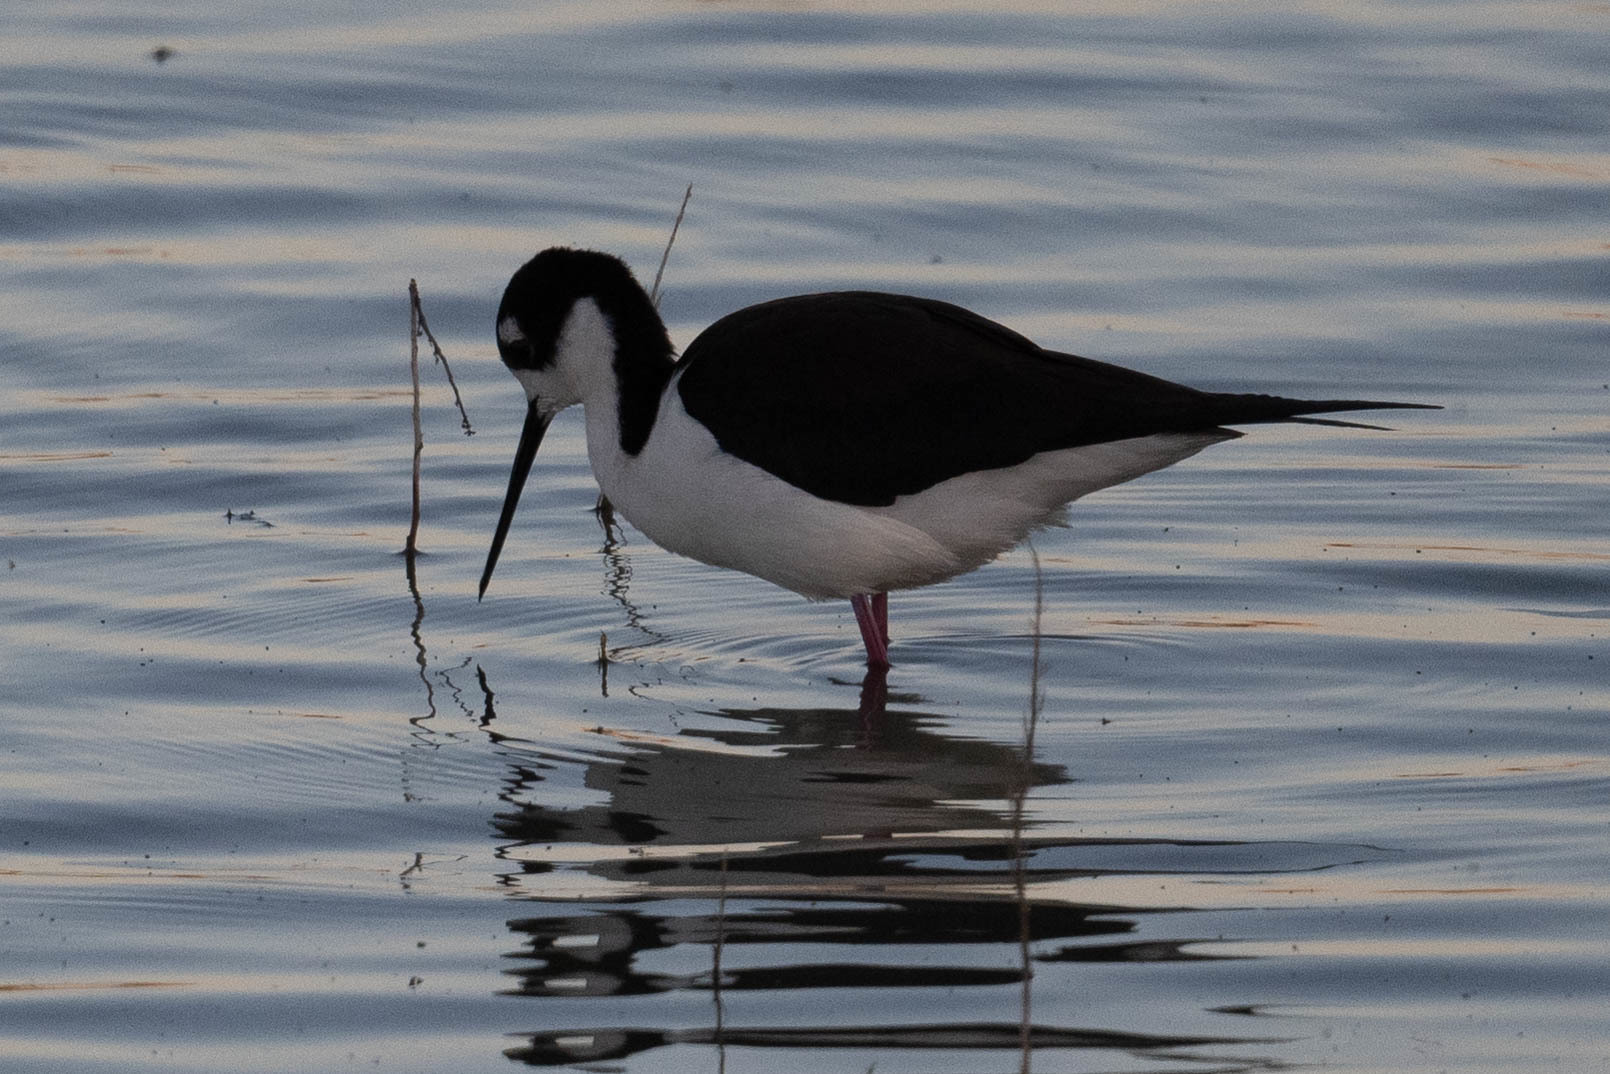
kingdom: Animalia
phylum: Chordata
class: Aves
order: Charadriiformes
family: Recurvirostridae
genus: Himantopus
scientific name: Himantopus mexicanus
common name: Black-necked stilt
